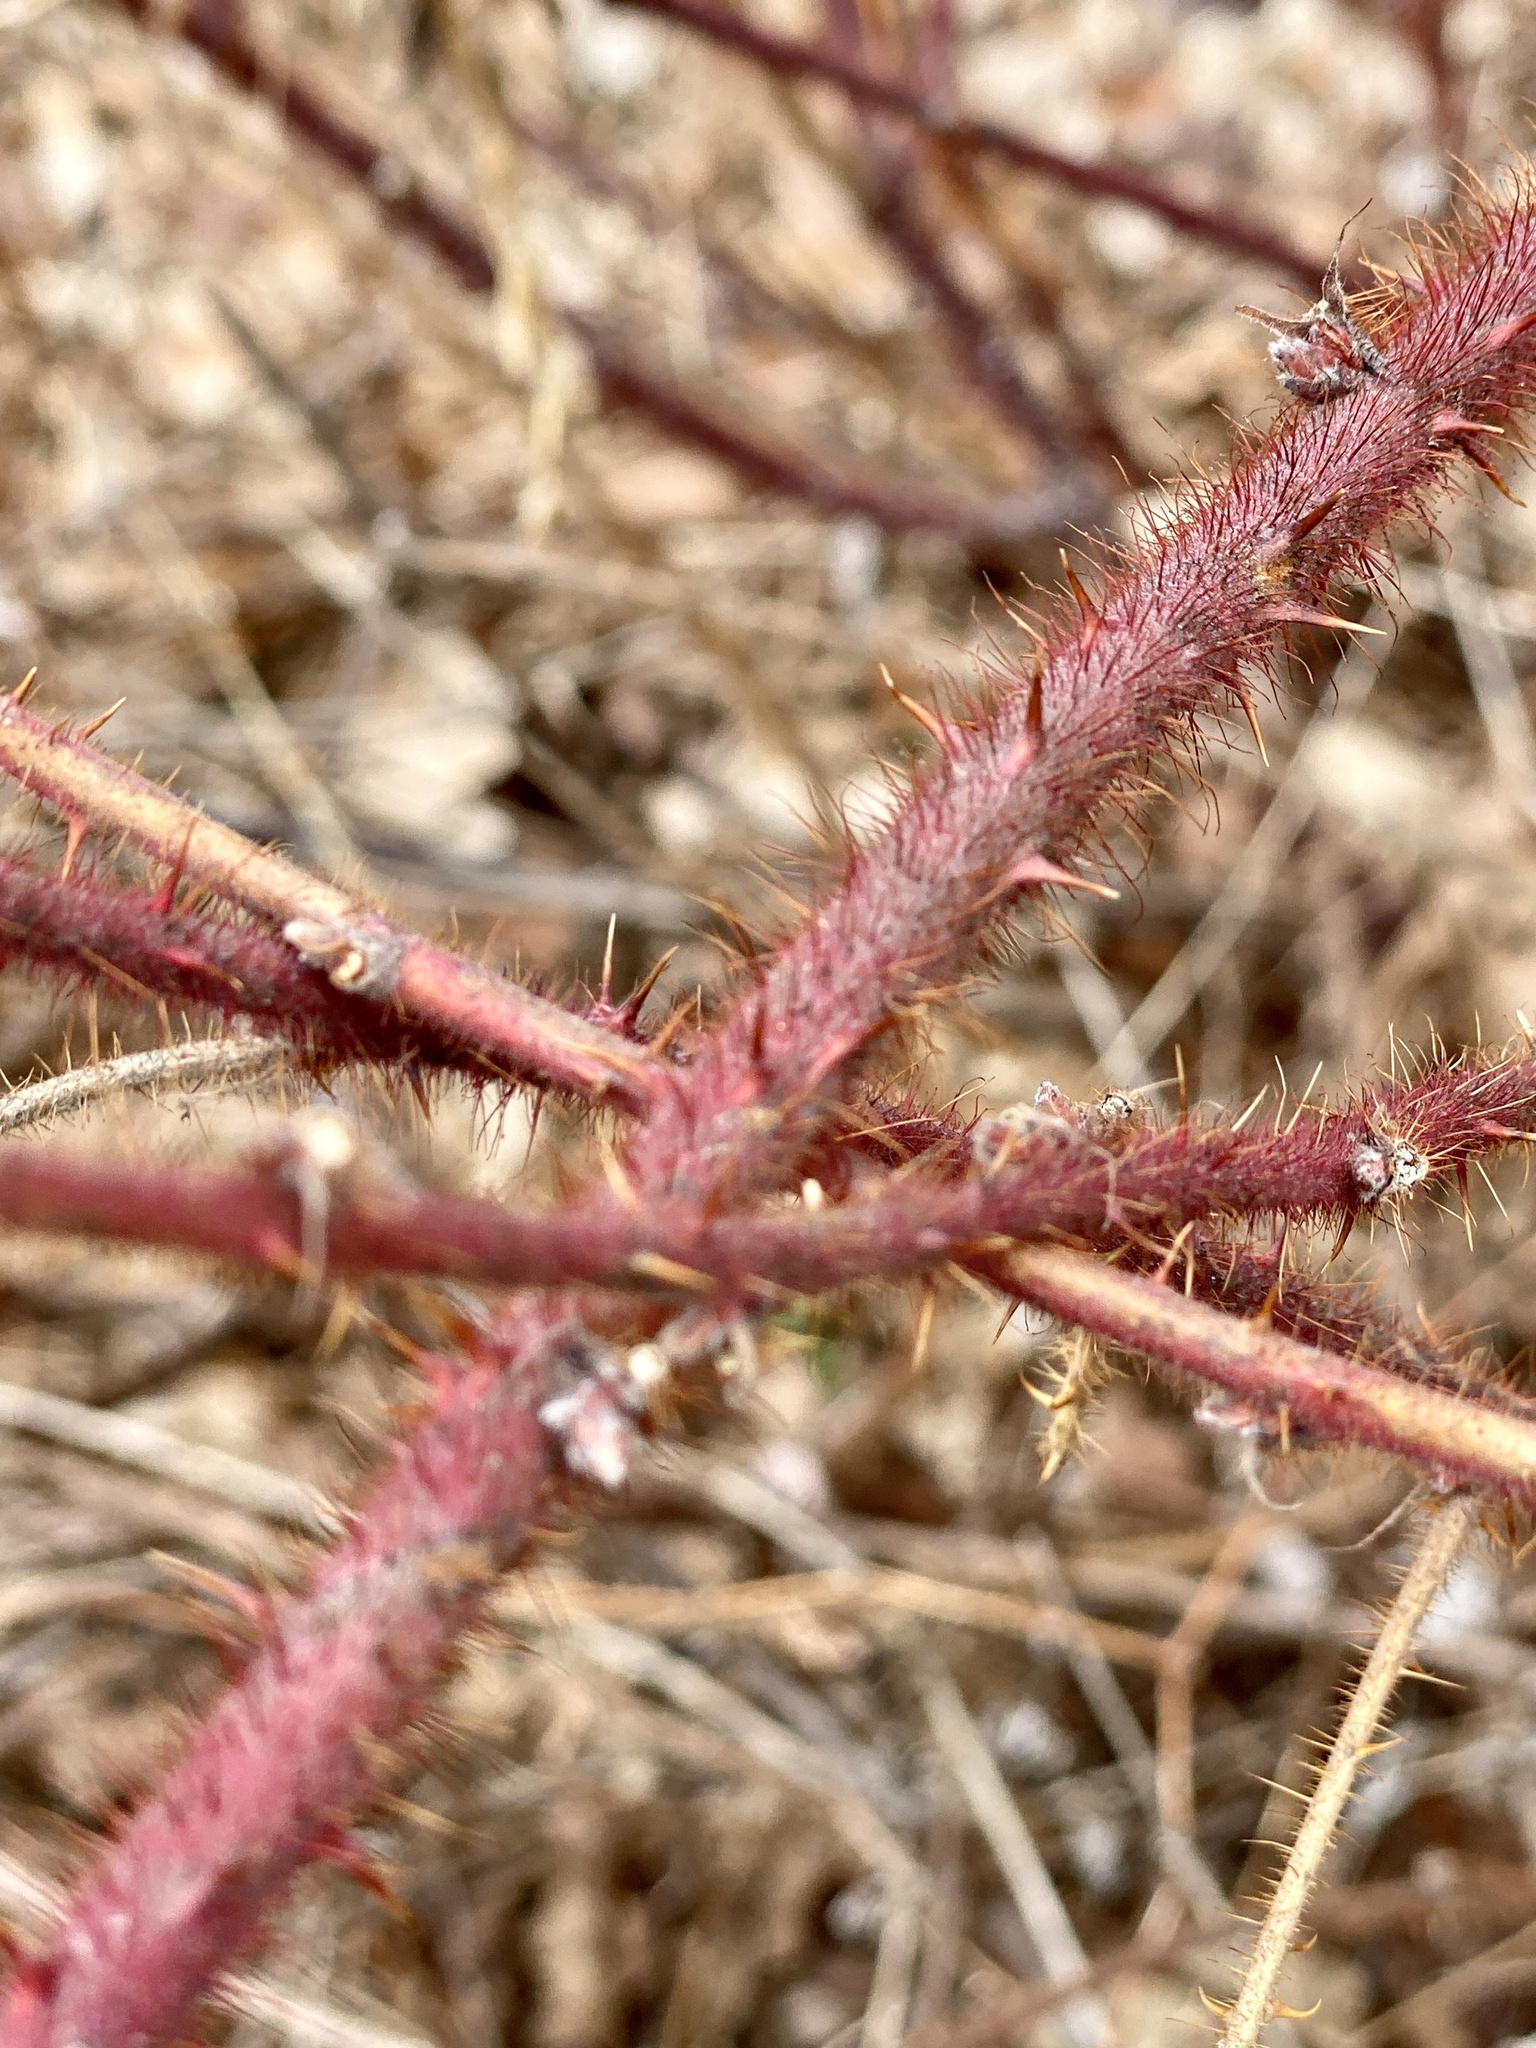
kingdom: Plantae
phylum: Tracheophyta
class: Magnoliopsida
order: Rosales
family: Rosaceae
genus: Rubus
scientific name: Rubus phoenicolasius
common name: Japanese wineberry
